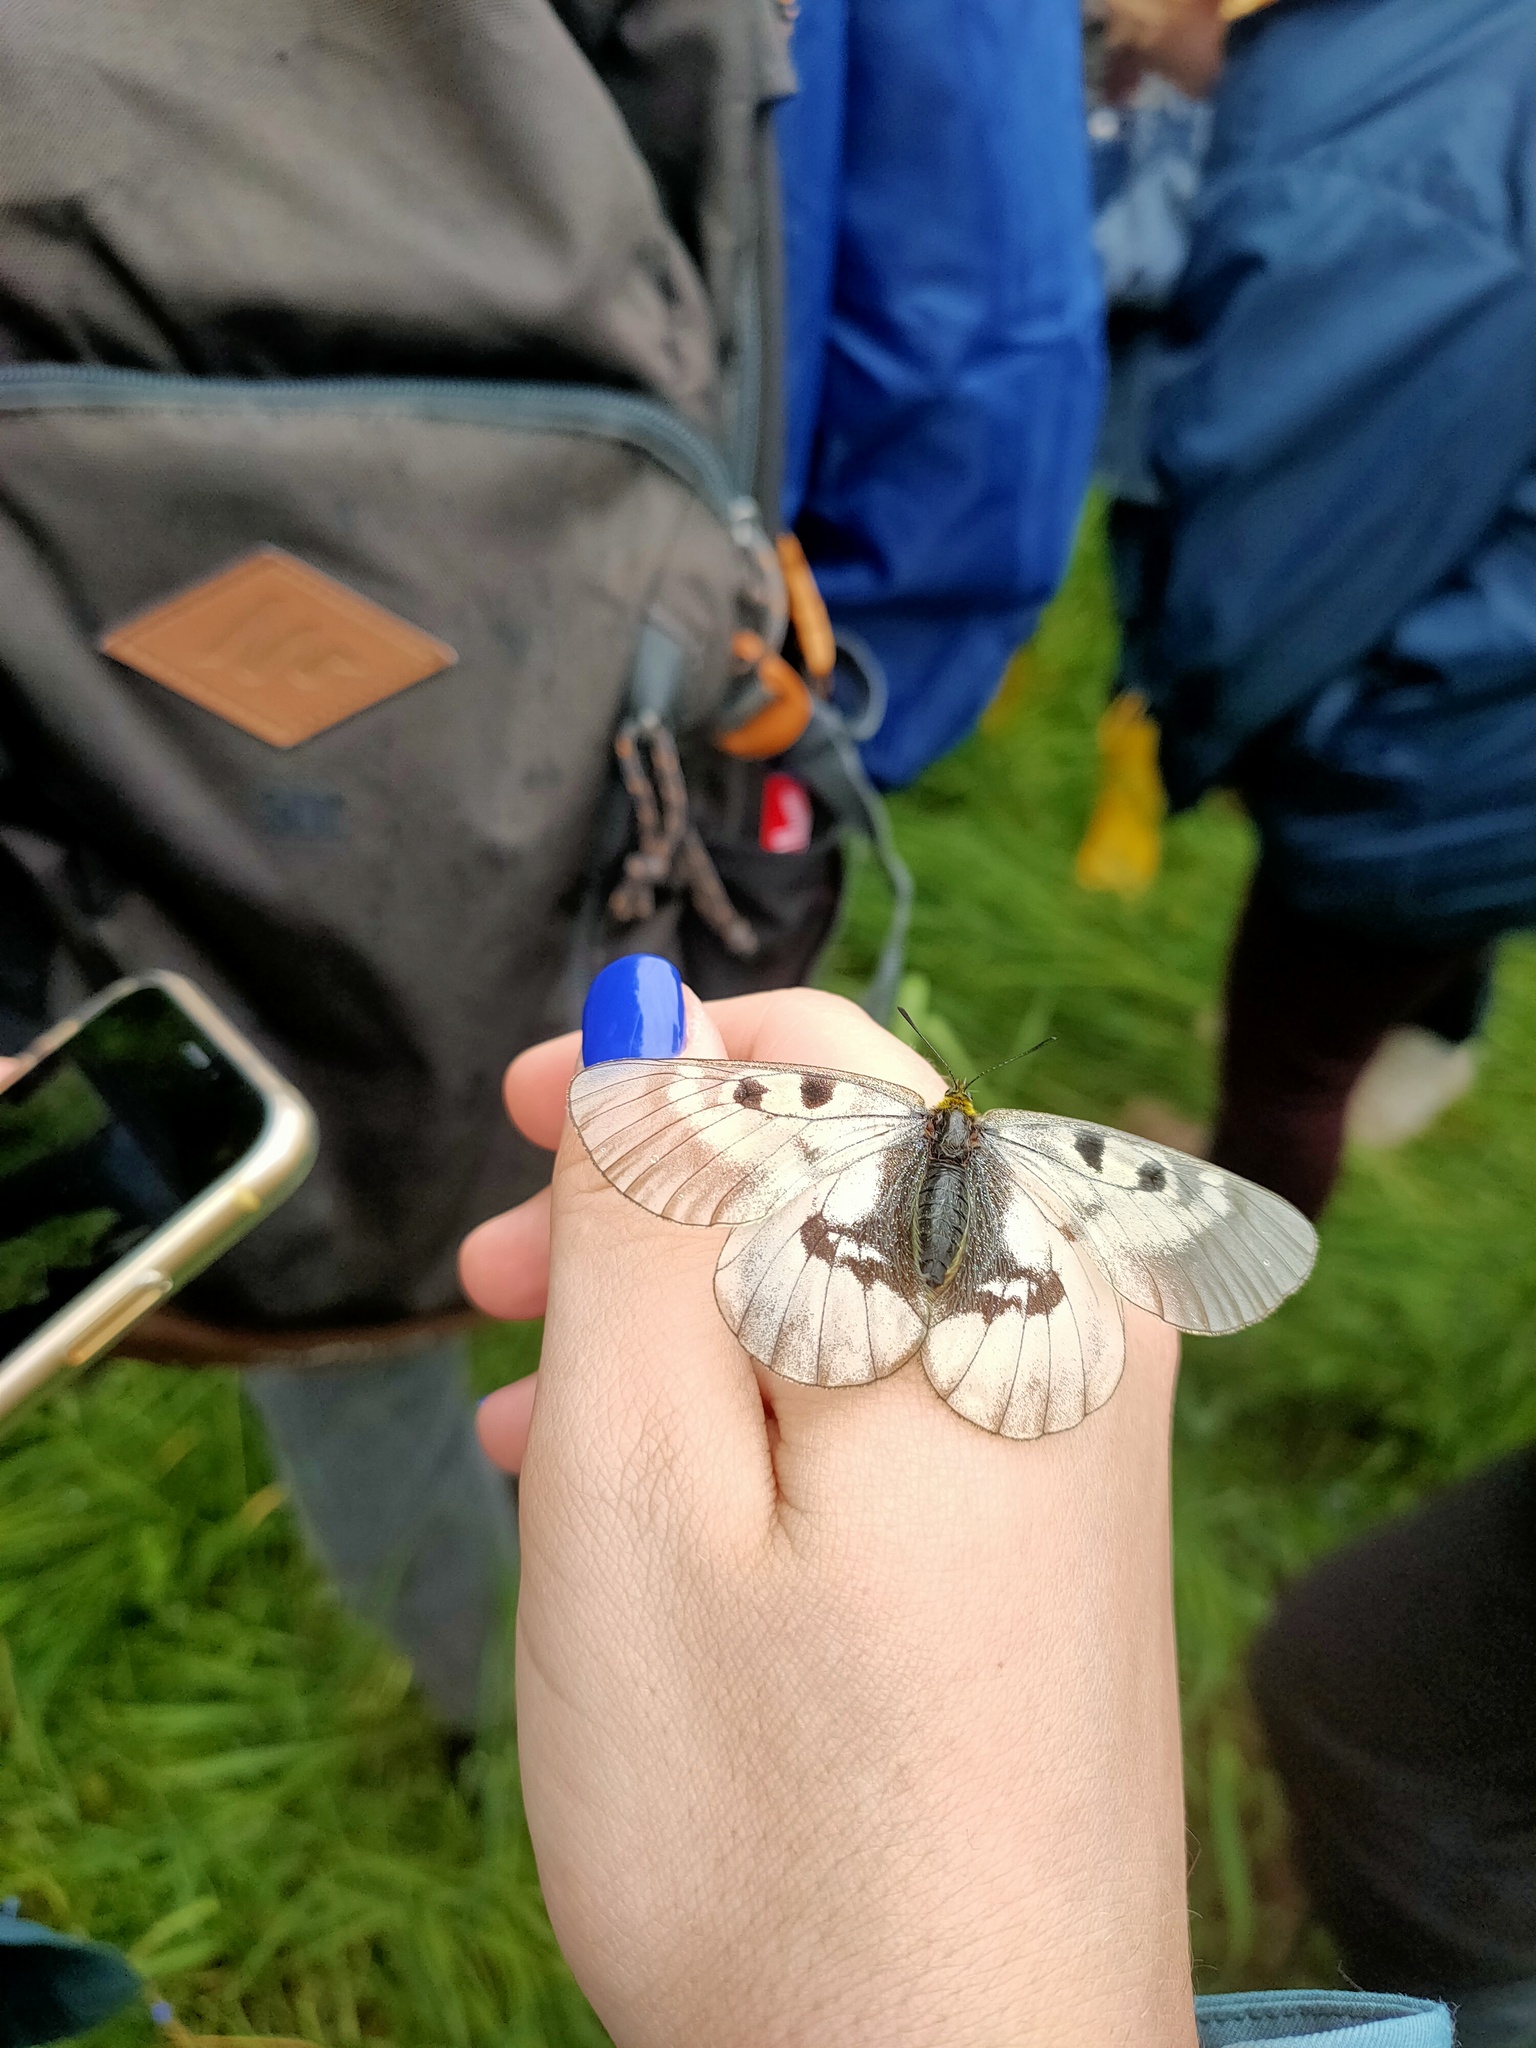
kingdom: Animalia
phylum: Arthropoda
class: Insecta
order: Lepidoptera
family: Papilionidae
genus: Parnassius
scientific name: Parnassius mnemosyne
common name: Clouded apollo
